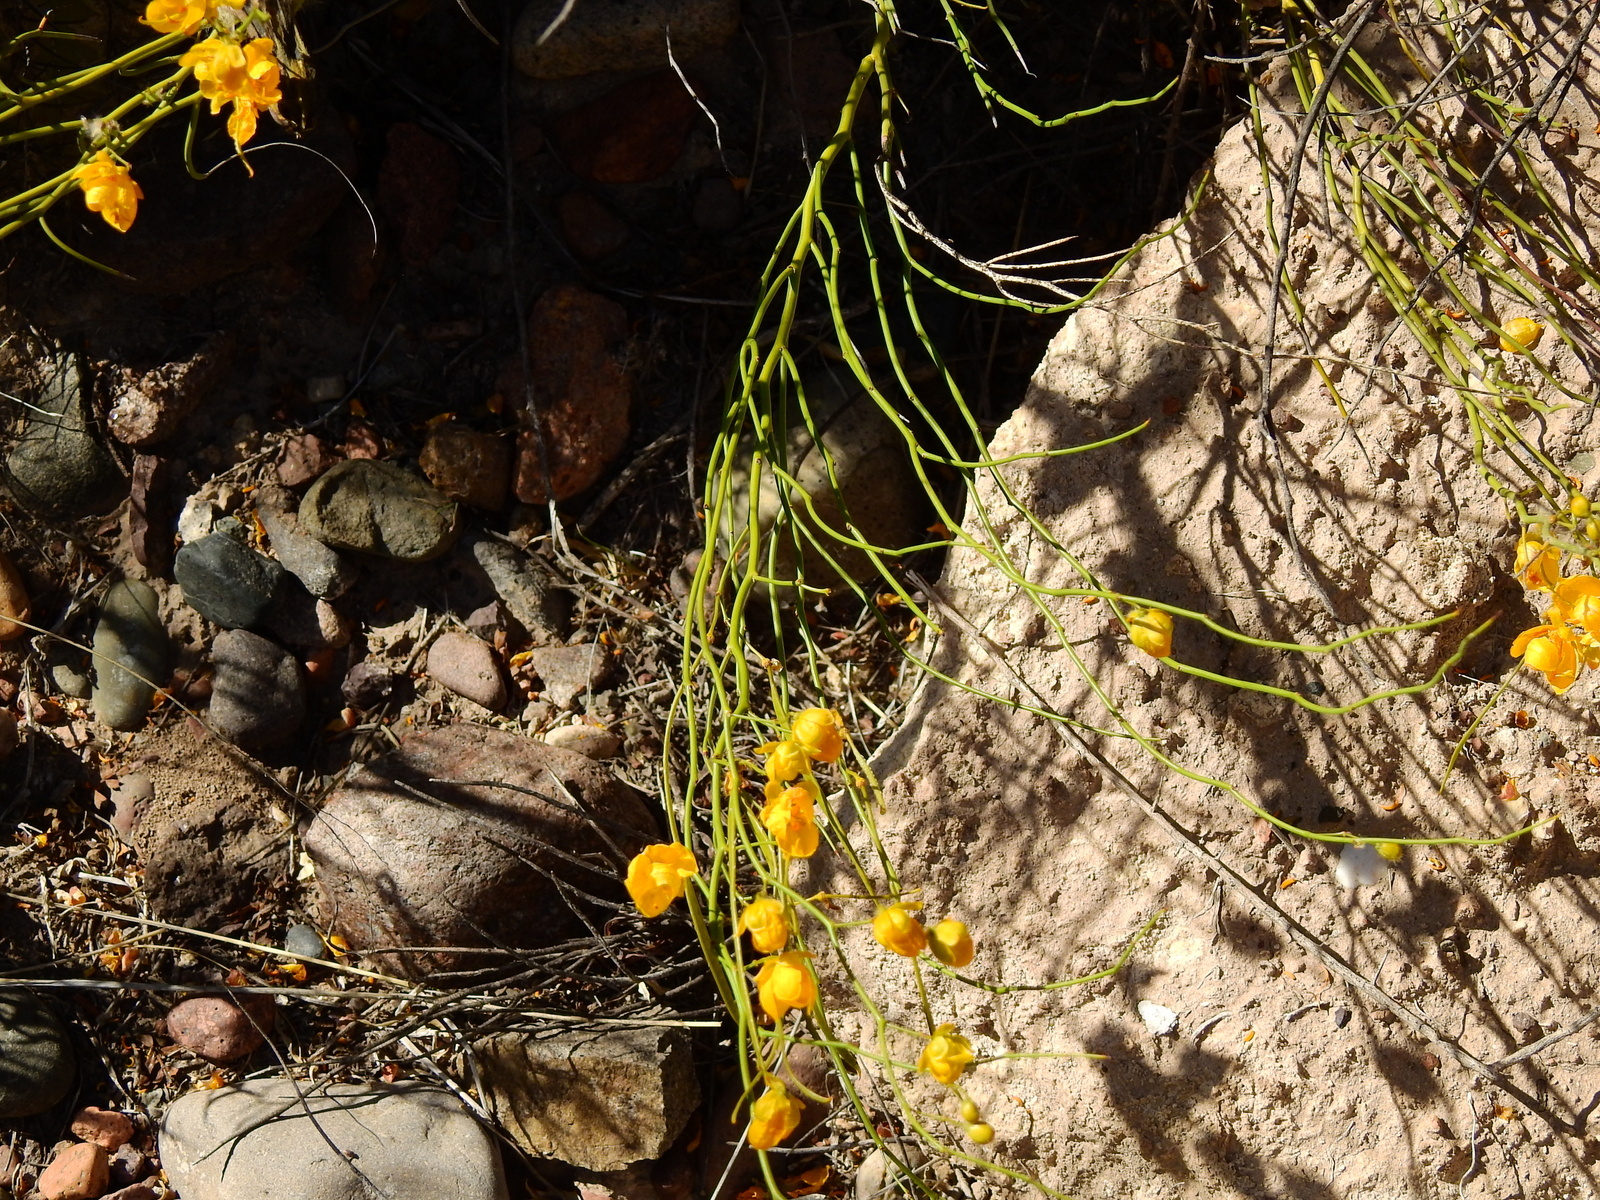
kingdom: Plantae
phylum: Tracheophyta
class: Magnoliopsida
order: Fabales
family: Fabaceae
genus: Senna
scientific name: Senna aphylla
